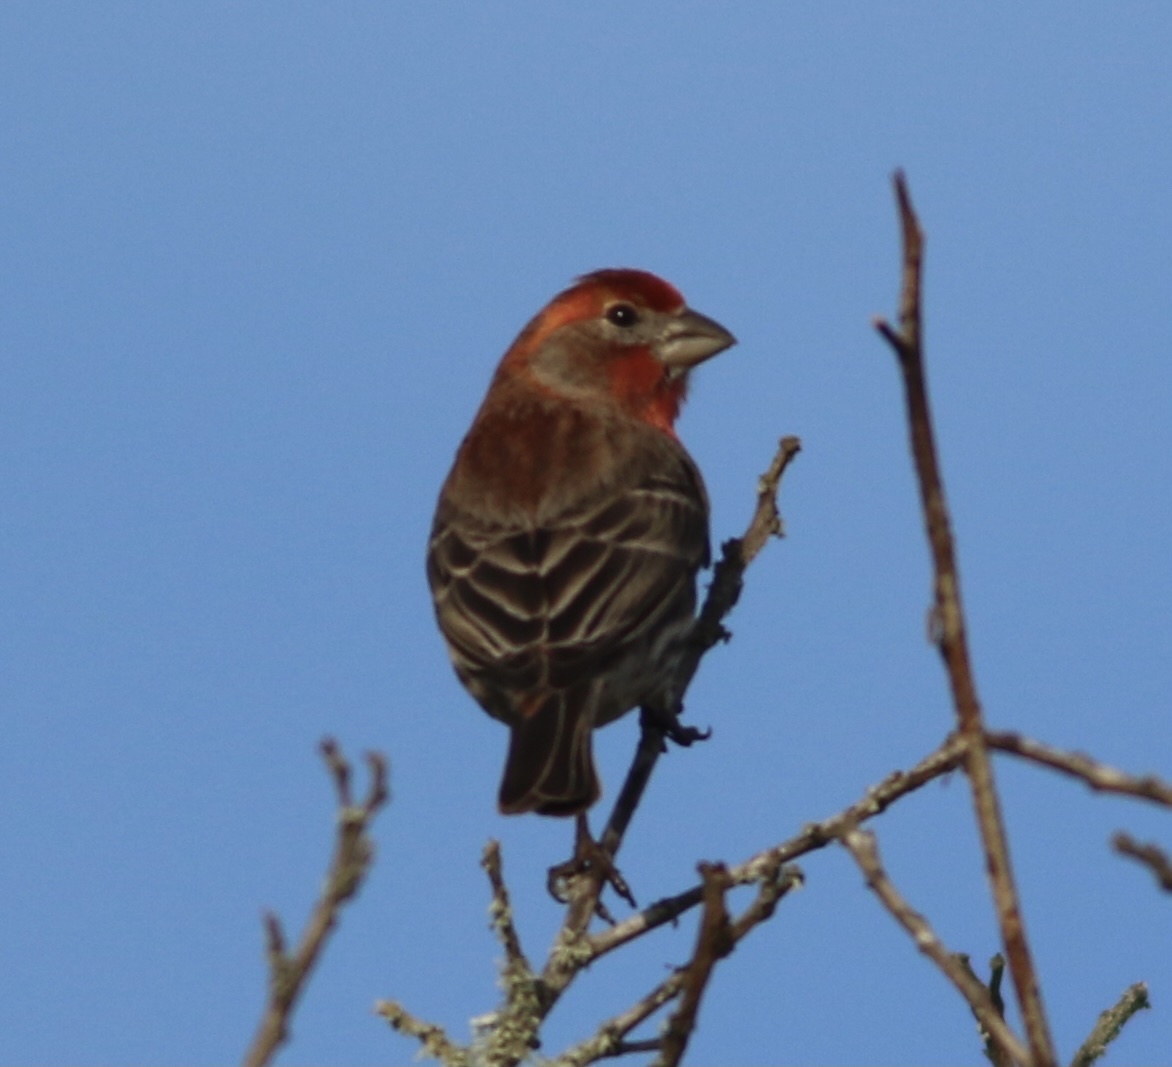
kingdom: Animalia
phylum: Chordata
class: Aves
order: Passeriformes
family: Fringillidae
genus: Haemorhous
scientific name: Haemorhous mexicanus
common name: House finch
